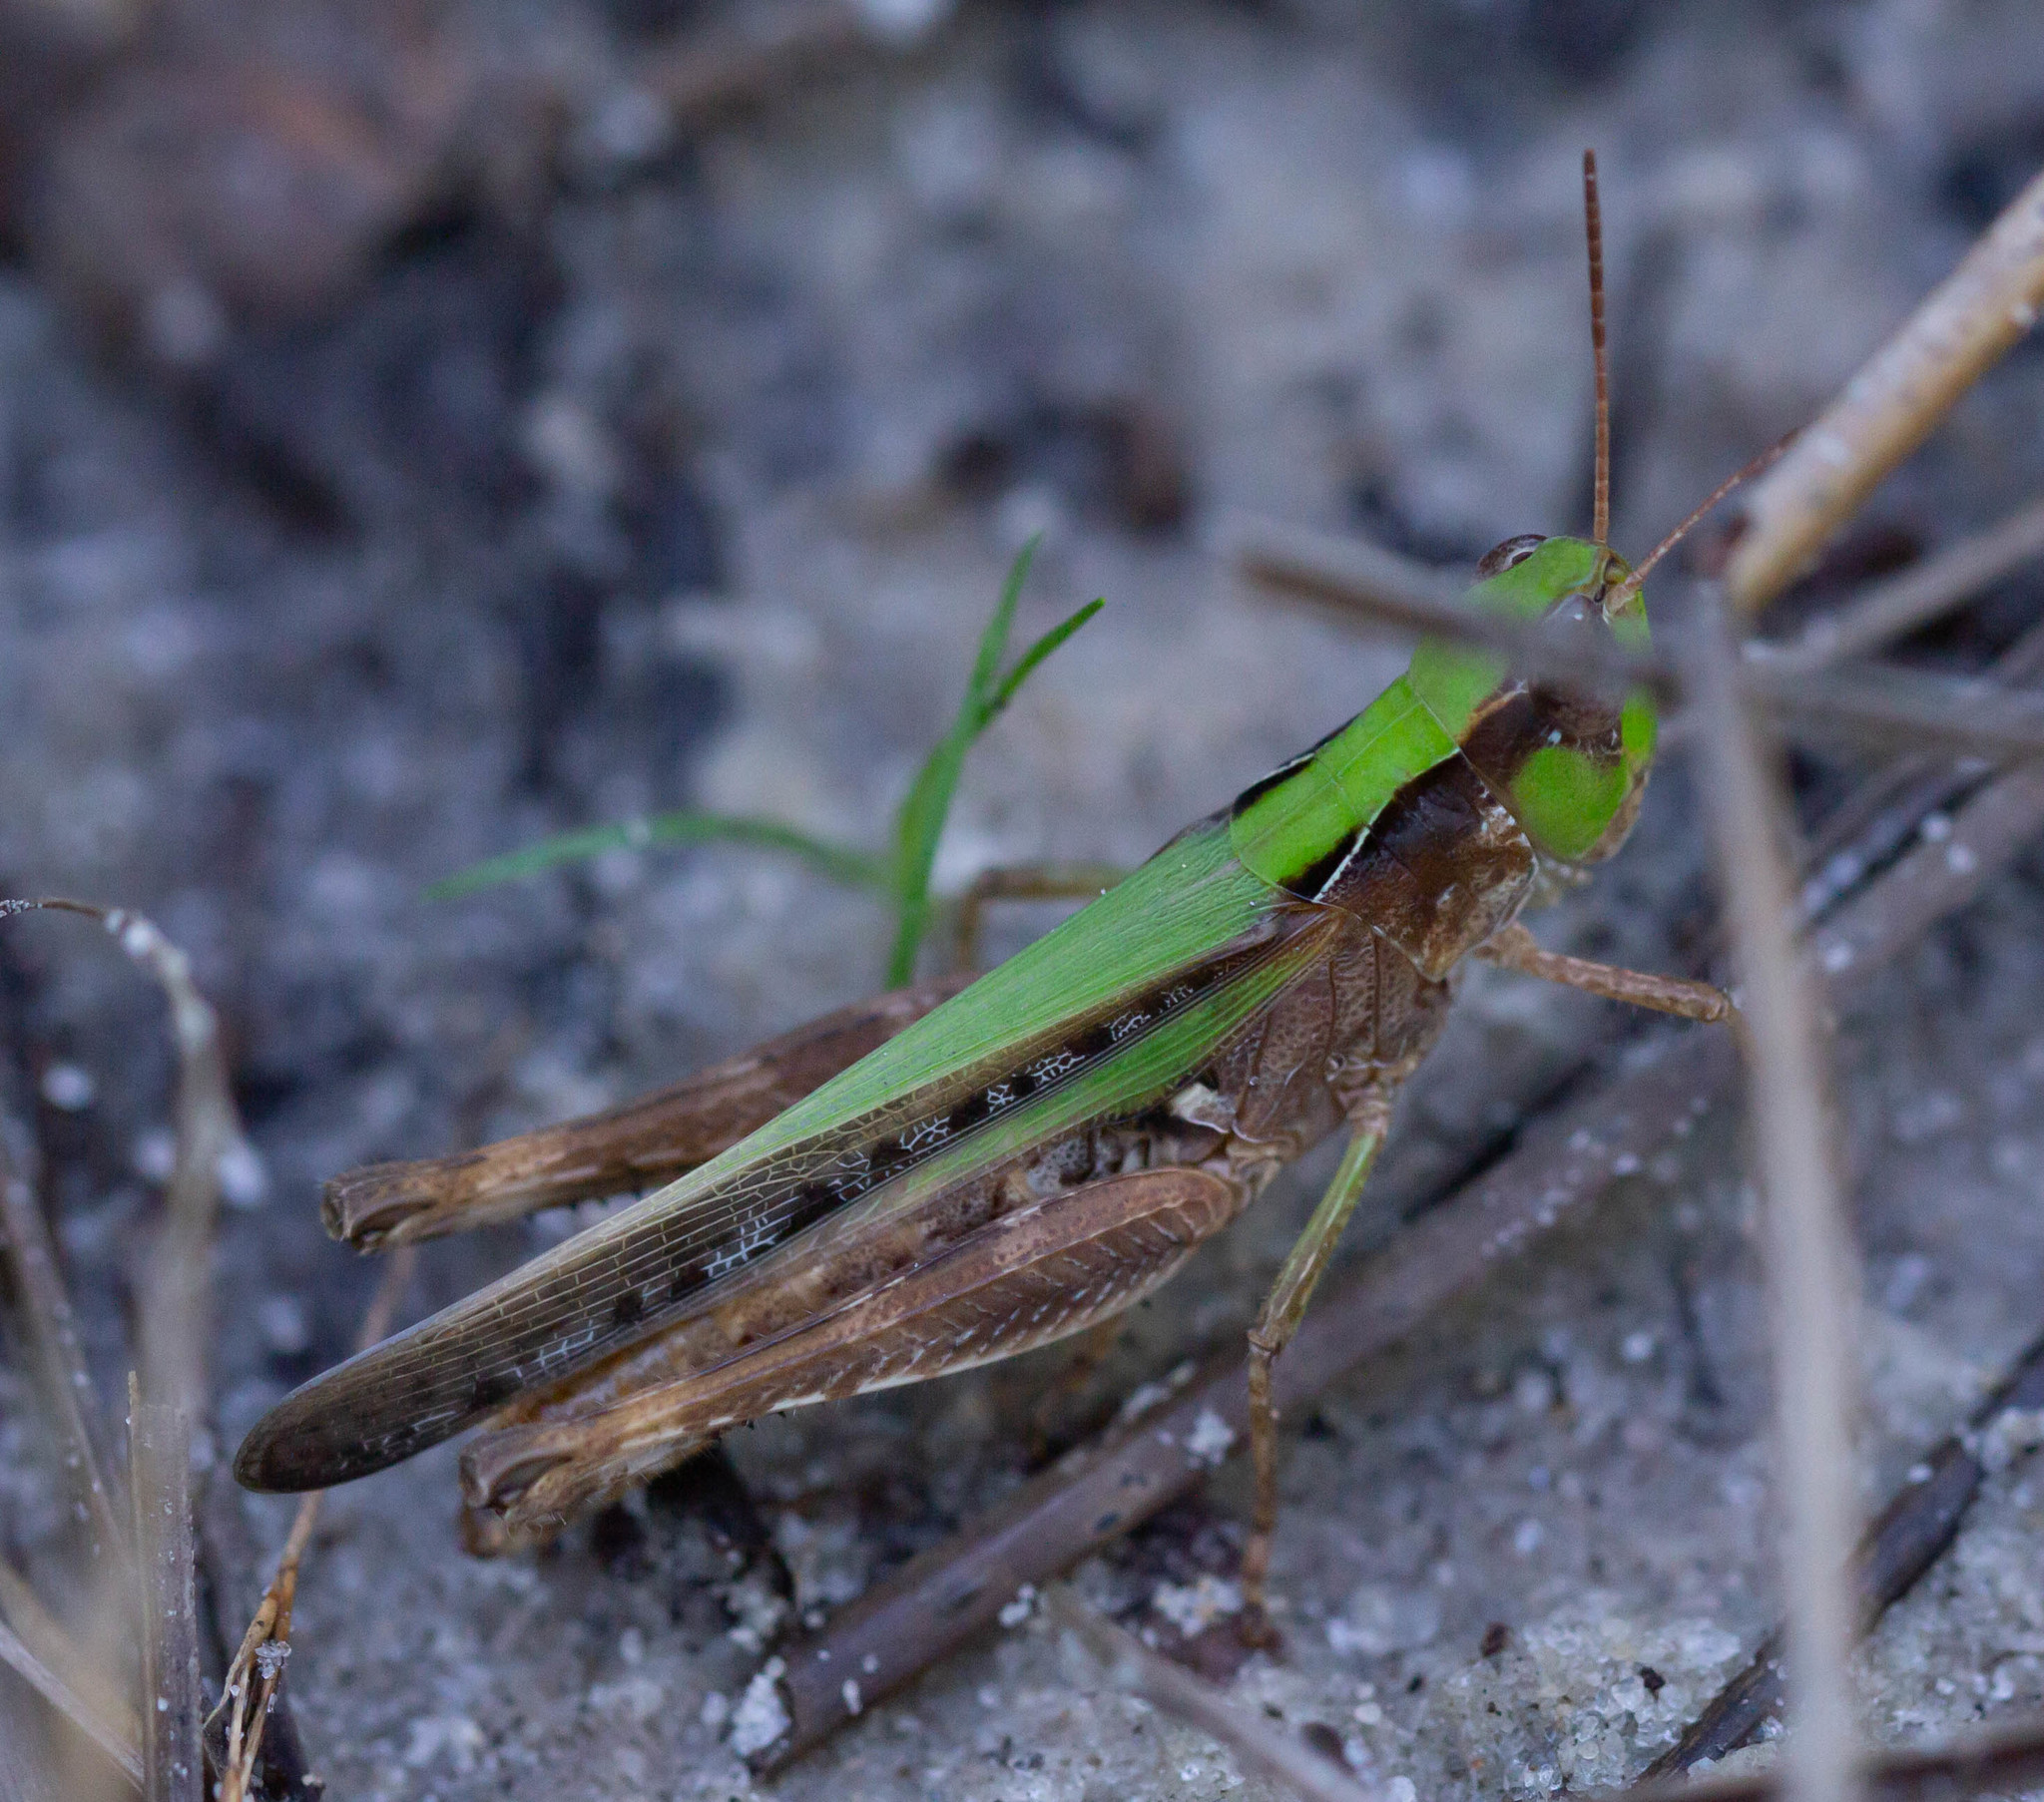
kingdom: Animalia
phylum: Arthropoda
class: Insecta
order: Orthoptera
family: Acrididae
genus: Orphulella
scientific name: Orphulella pelidna
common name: Spotted-wing grasshopper
